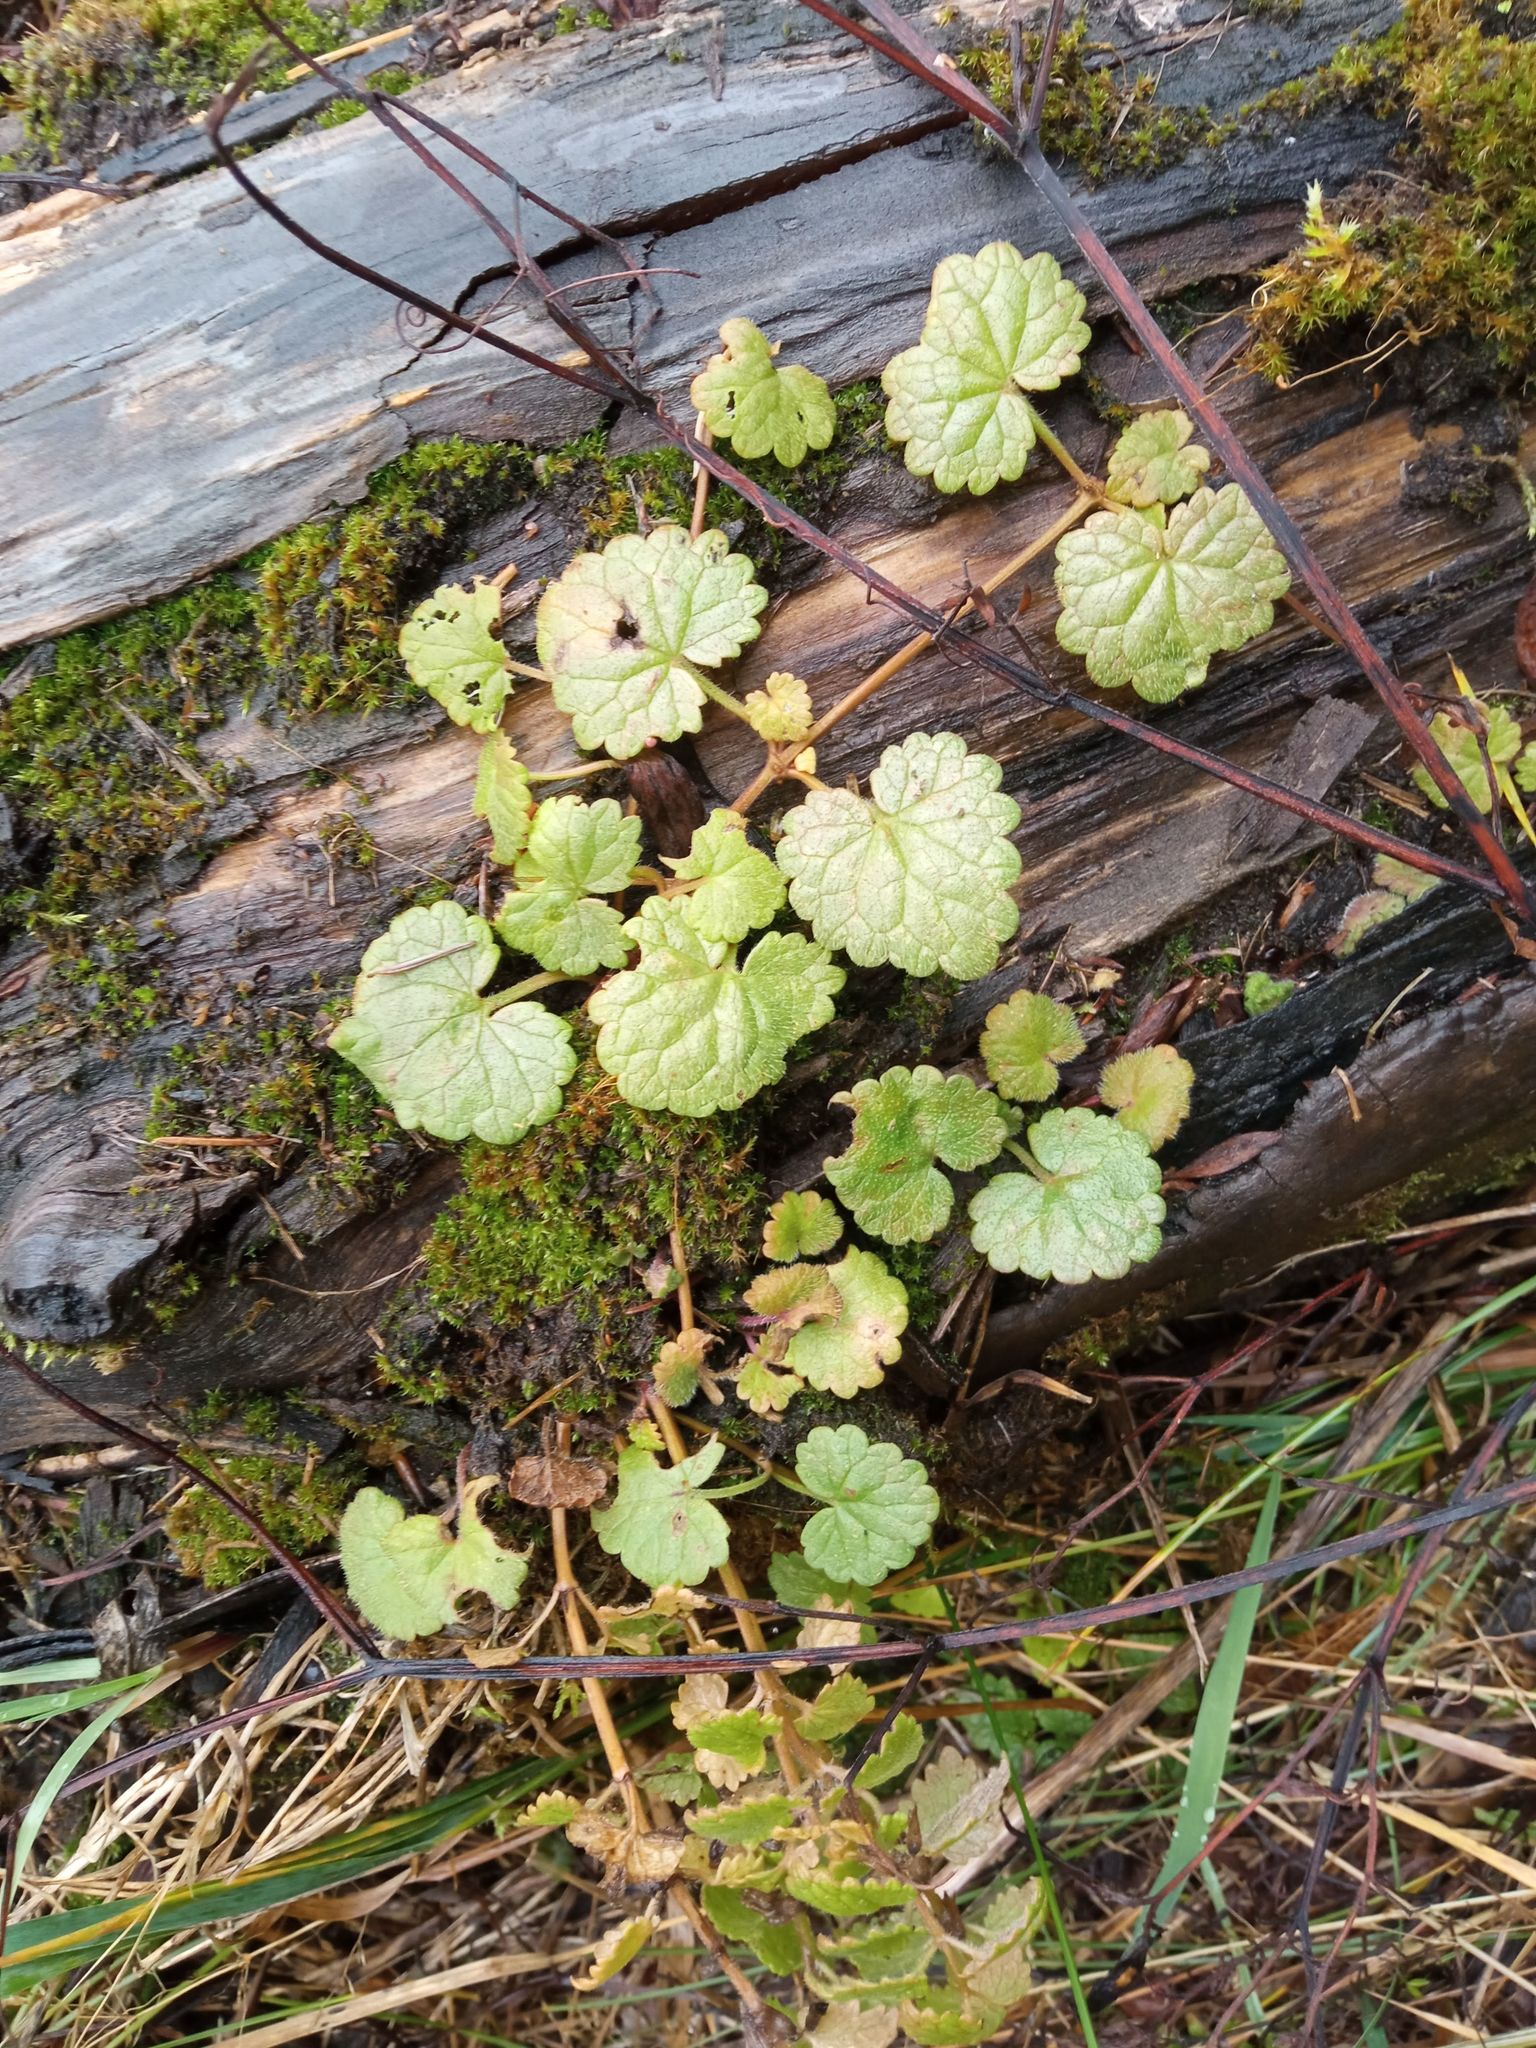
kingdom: Plantae
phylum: Tracheophyta
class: Magnoliopsida
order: Lamiales
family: Lamiaceae
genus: Glechoma
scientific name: Glechoma hederacea
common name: Ground ivy
